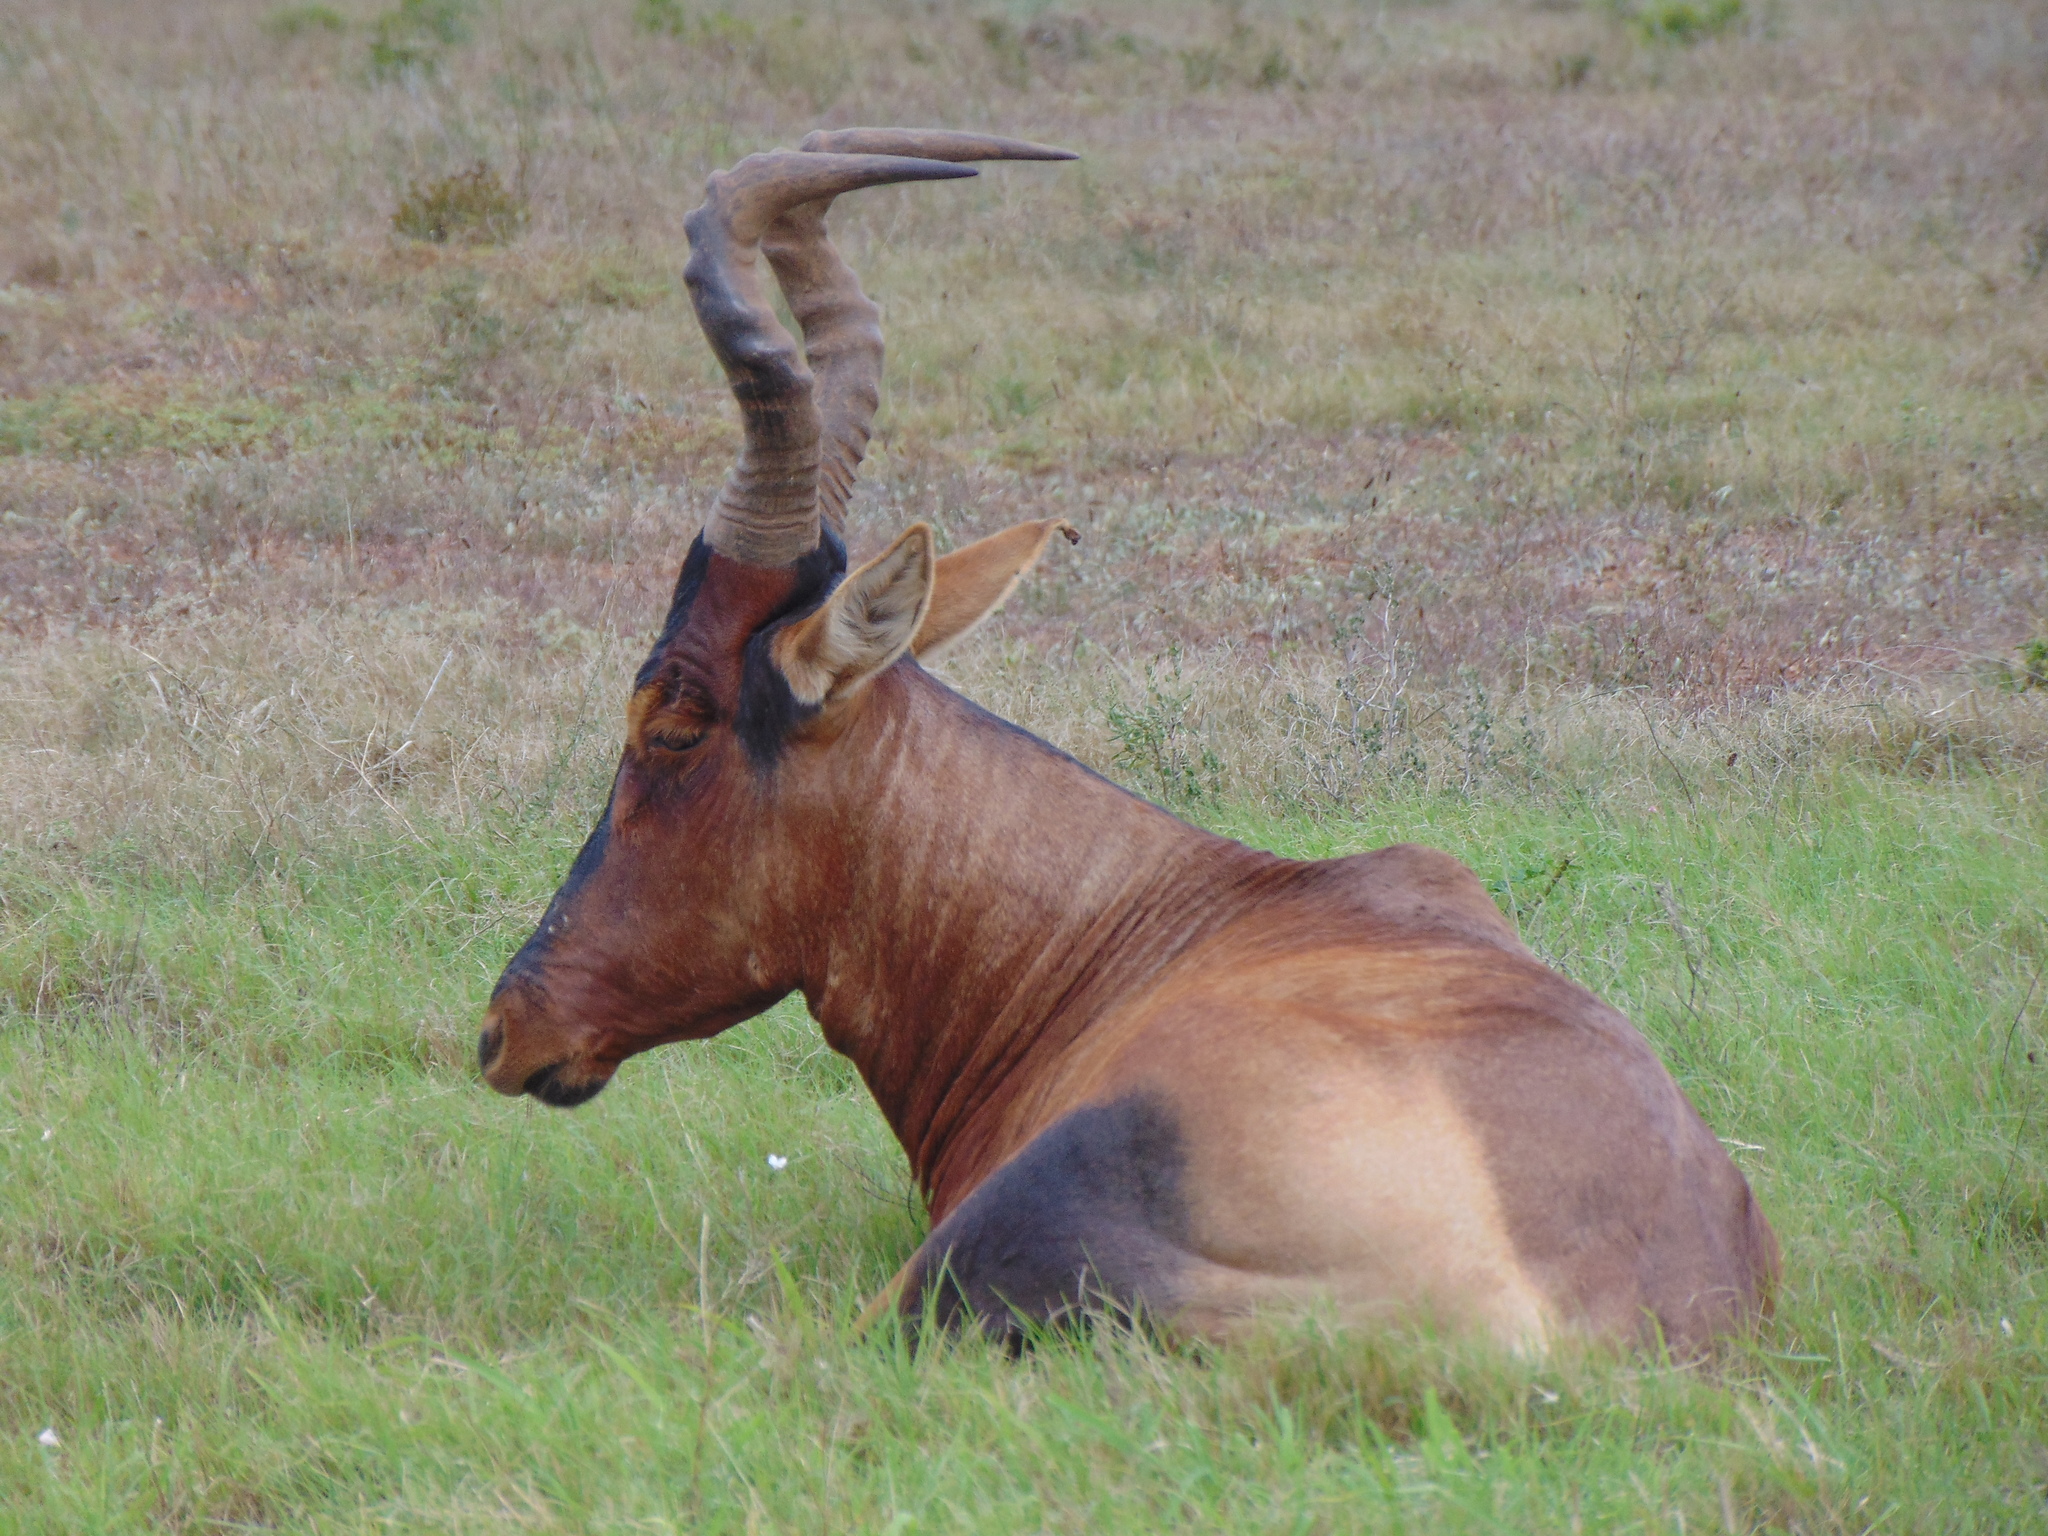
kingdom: Animalia
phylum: Chordata
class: Mammalia
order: Artiodactyla
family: Bovidae
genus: Alcelaphus
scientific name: Alcelaphus caama
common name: Red hartebeest
